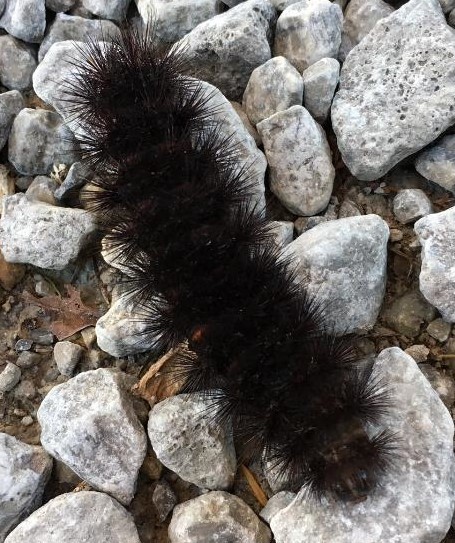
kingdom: Animalia
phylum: Arthropoda
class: Insecta
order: Lepidoptera
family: Erebidae
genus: Hypercompe
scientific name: Hypercompe scribonia
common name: Giant leopard moth
